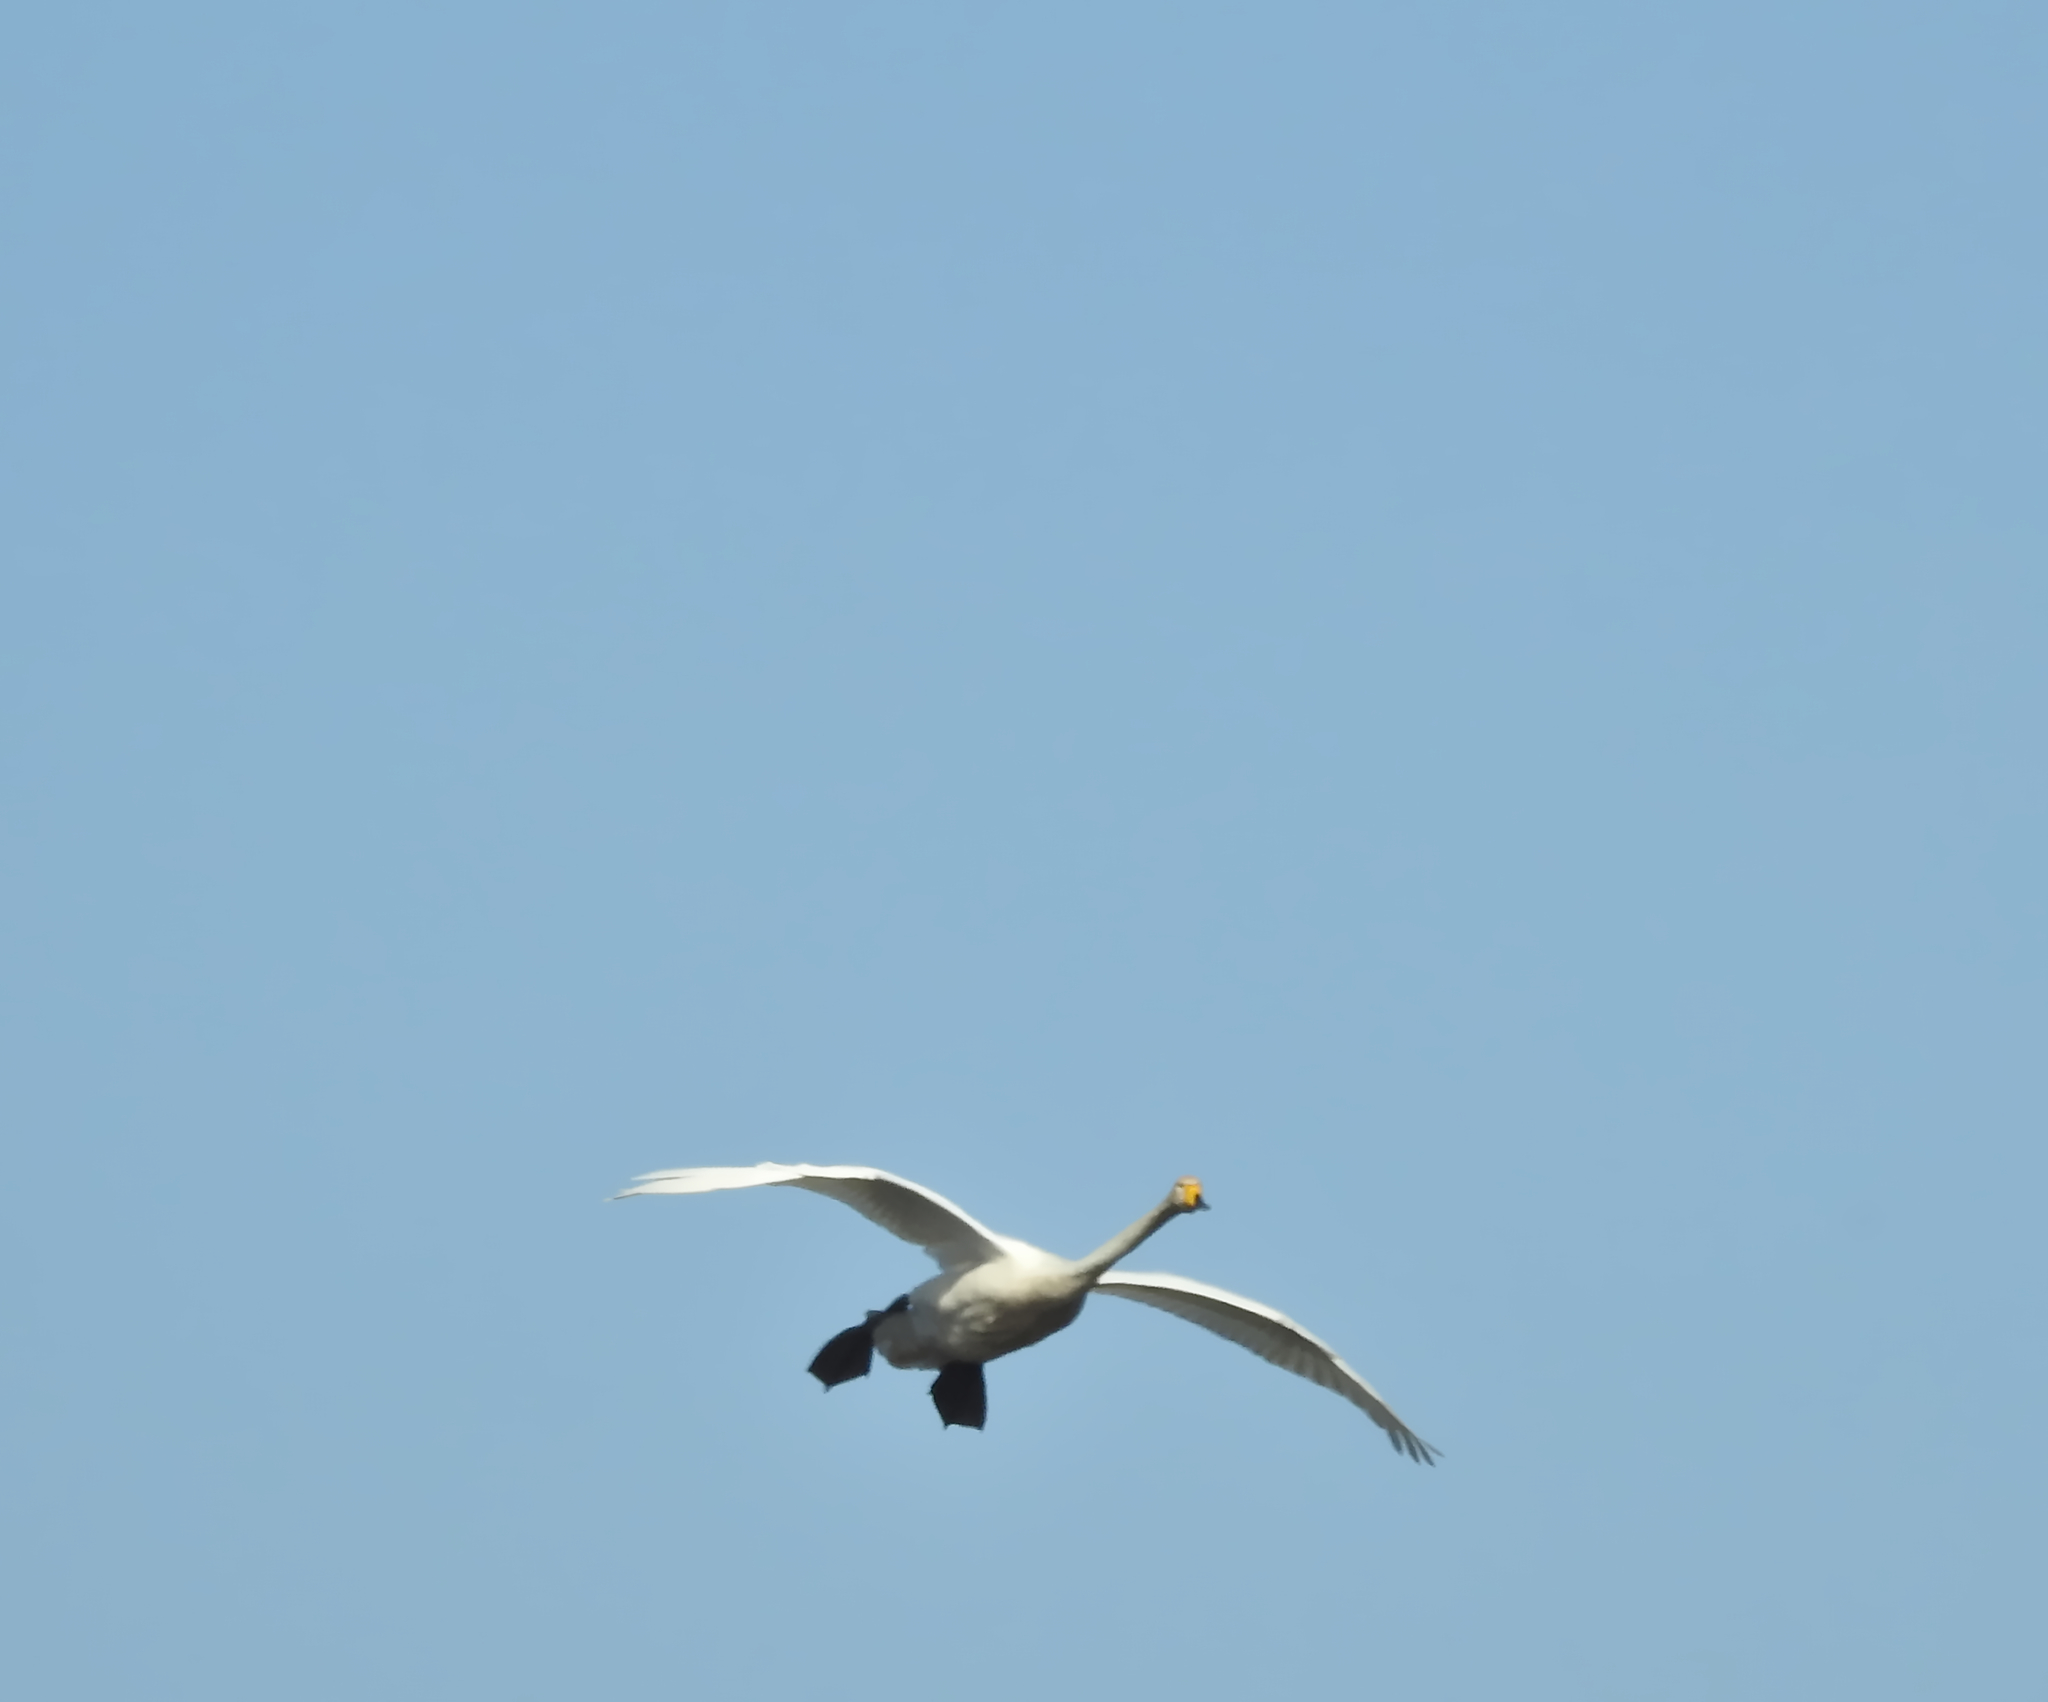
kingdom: Animalia
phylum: Chordata
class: Aves
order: Anseriformes
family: Anatidae
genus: Cygnus
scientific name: Cygnus cygnus
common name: Whooper swan
